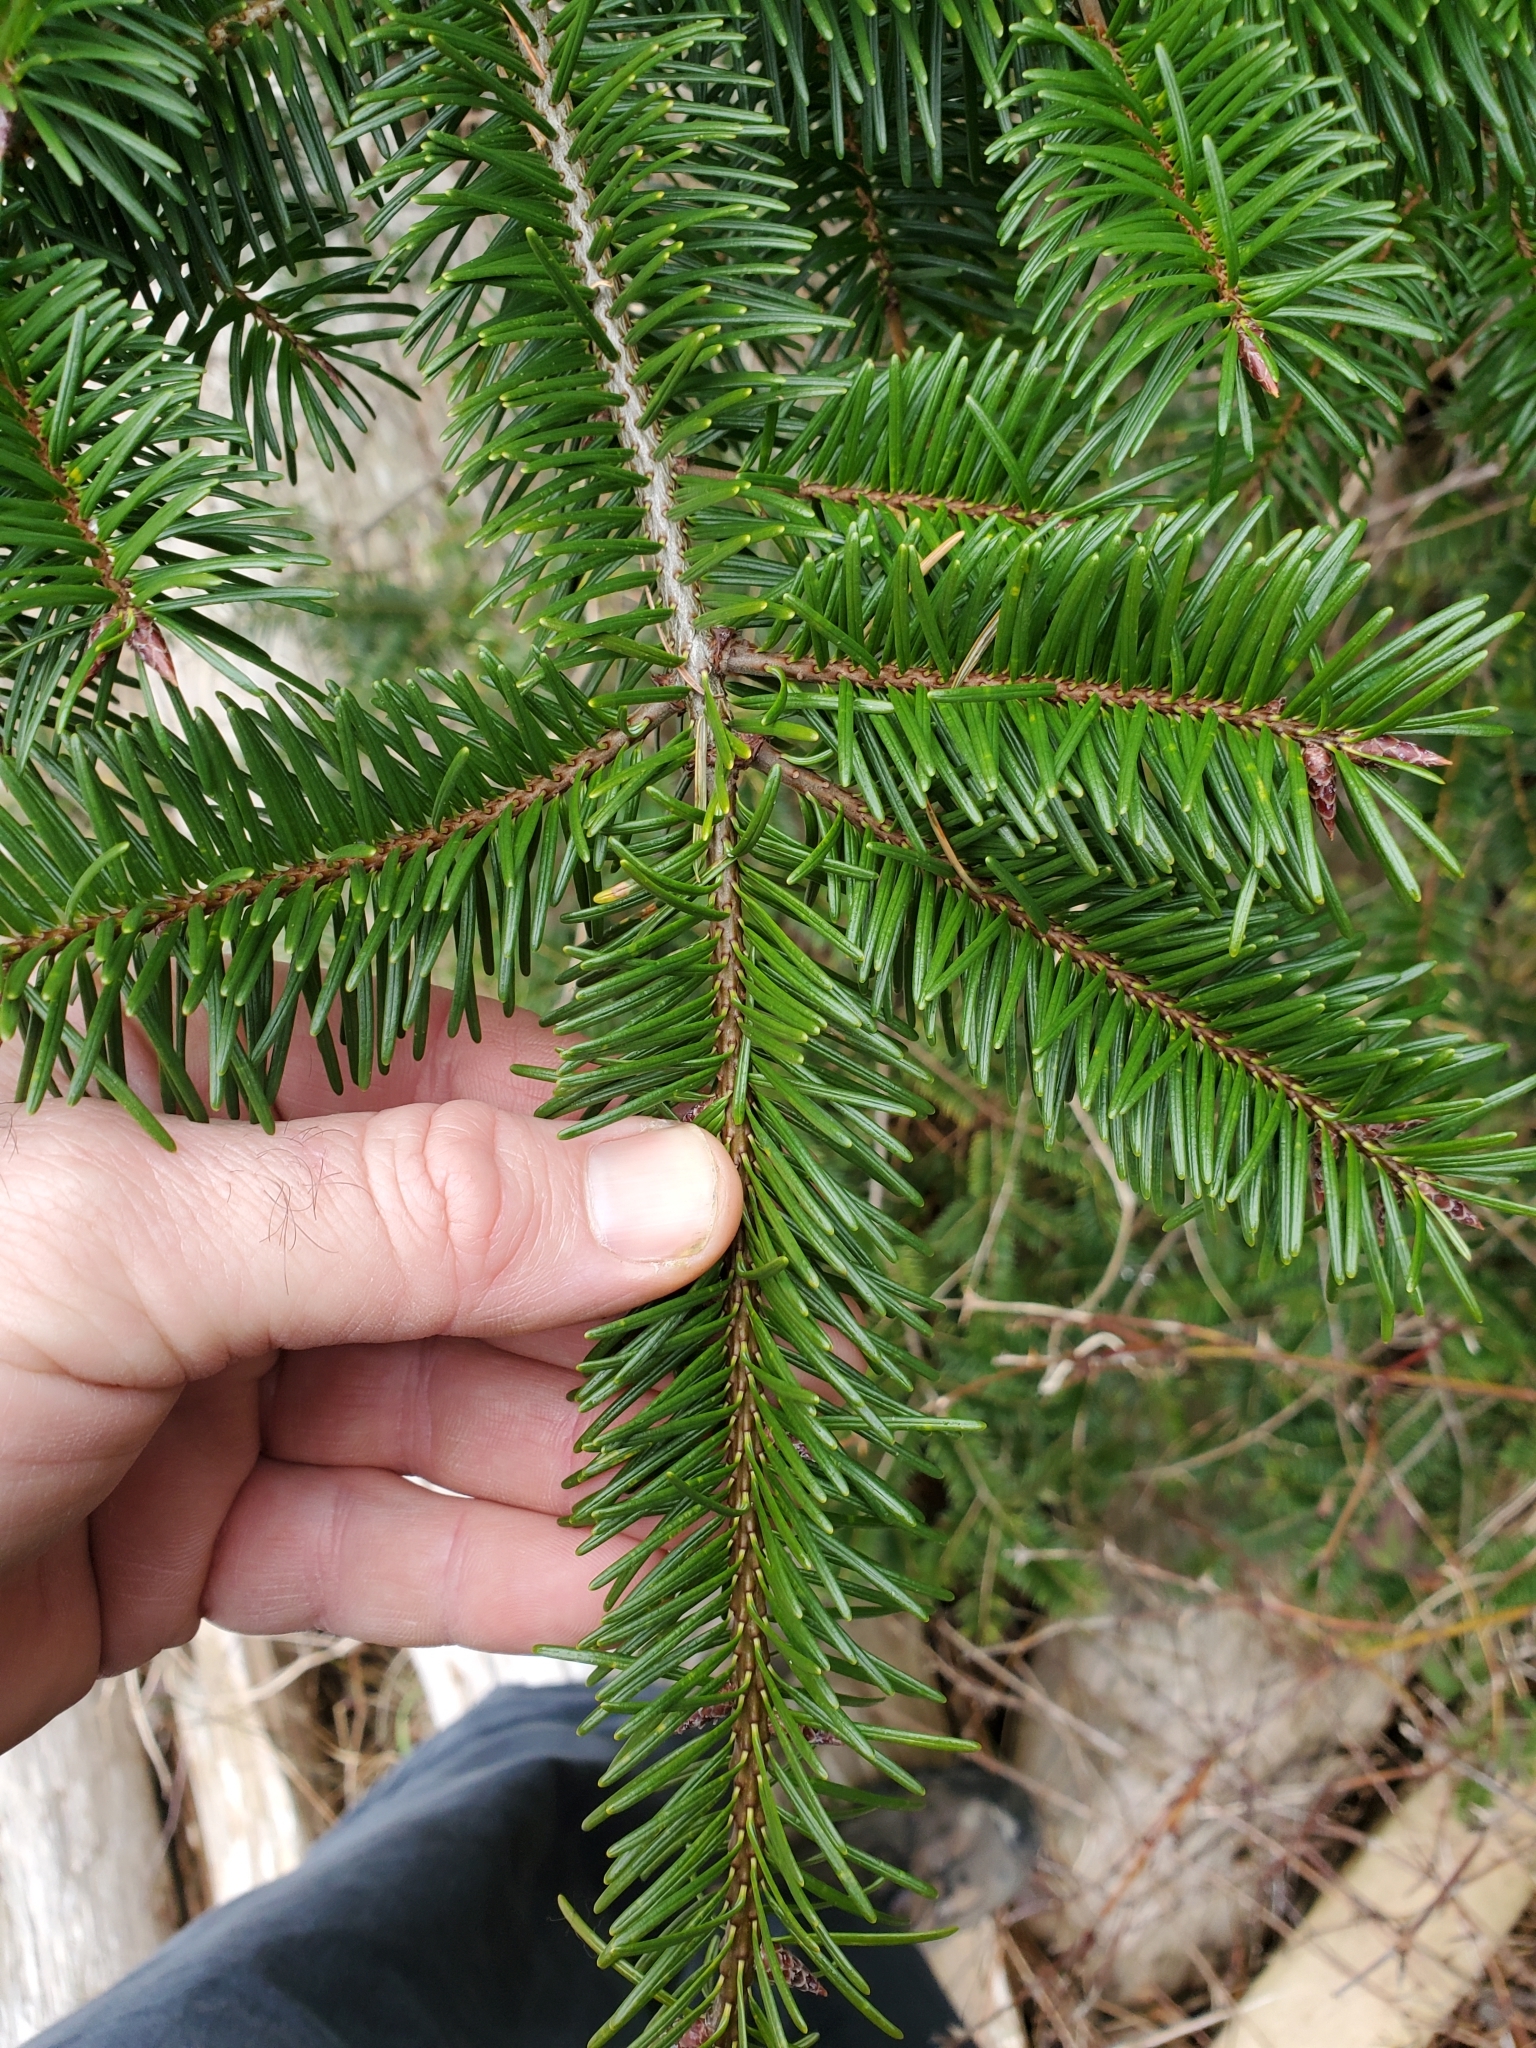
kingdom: Plantae
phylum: Tracheophyta
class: Pinopsida
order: Pinales
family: Pinaceae
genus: Pseudotsuga
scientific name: Pseudotsuga menziesii
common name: Douglas fir
